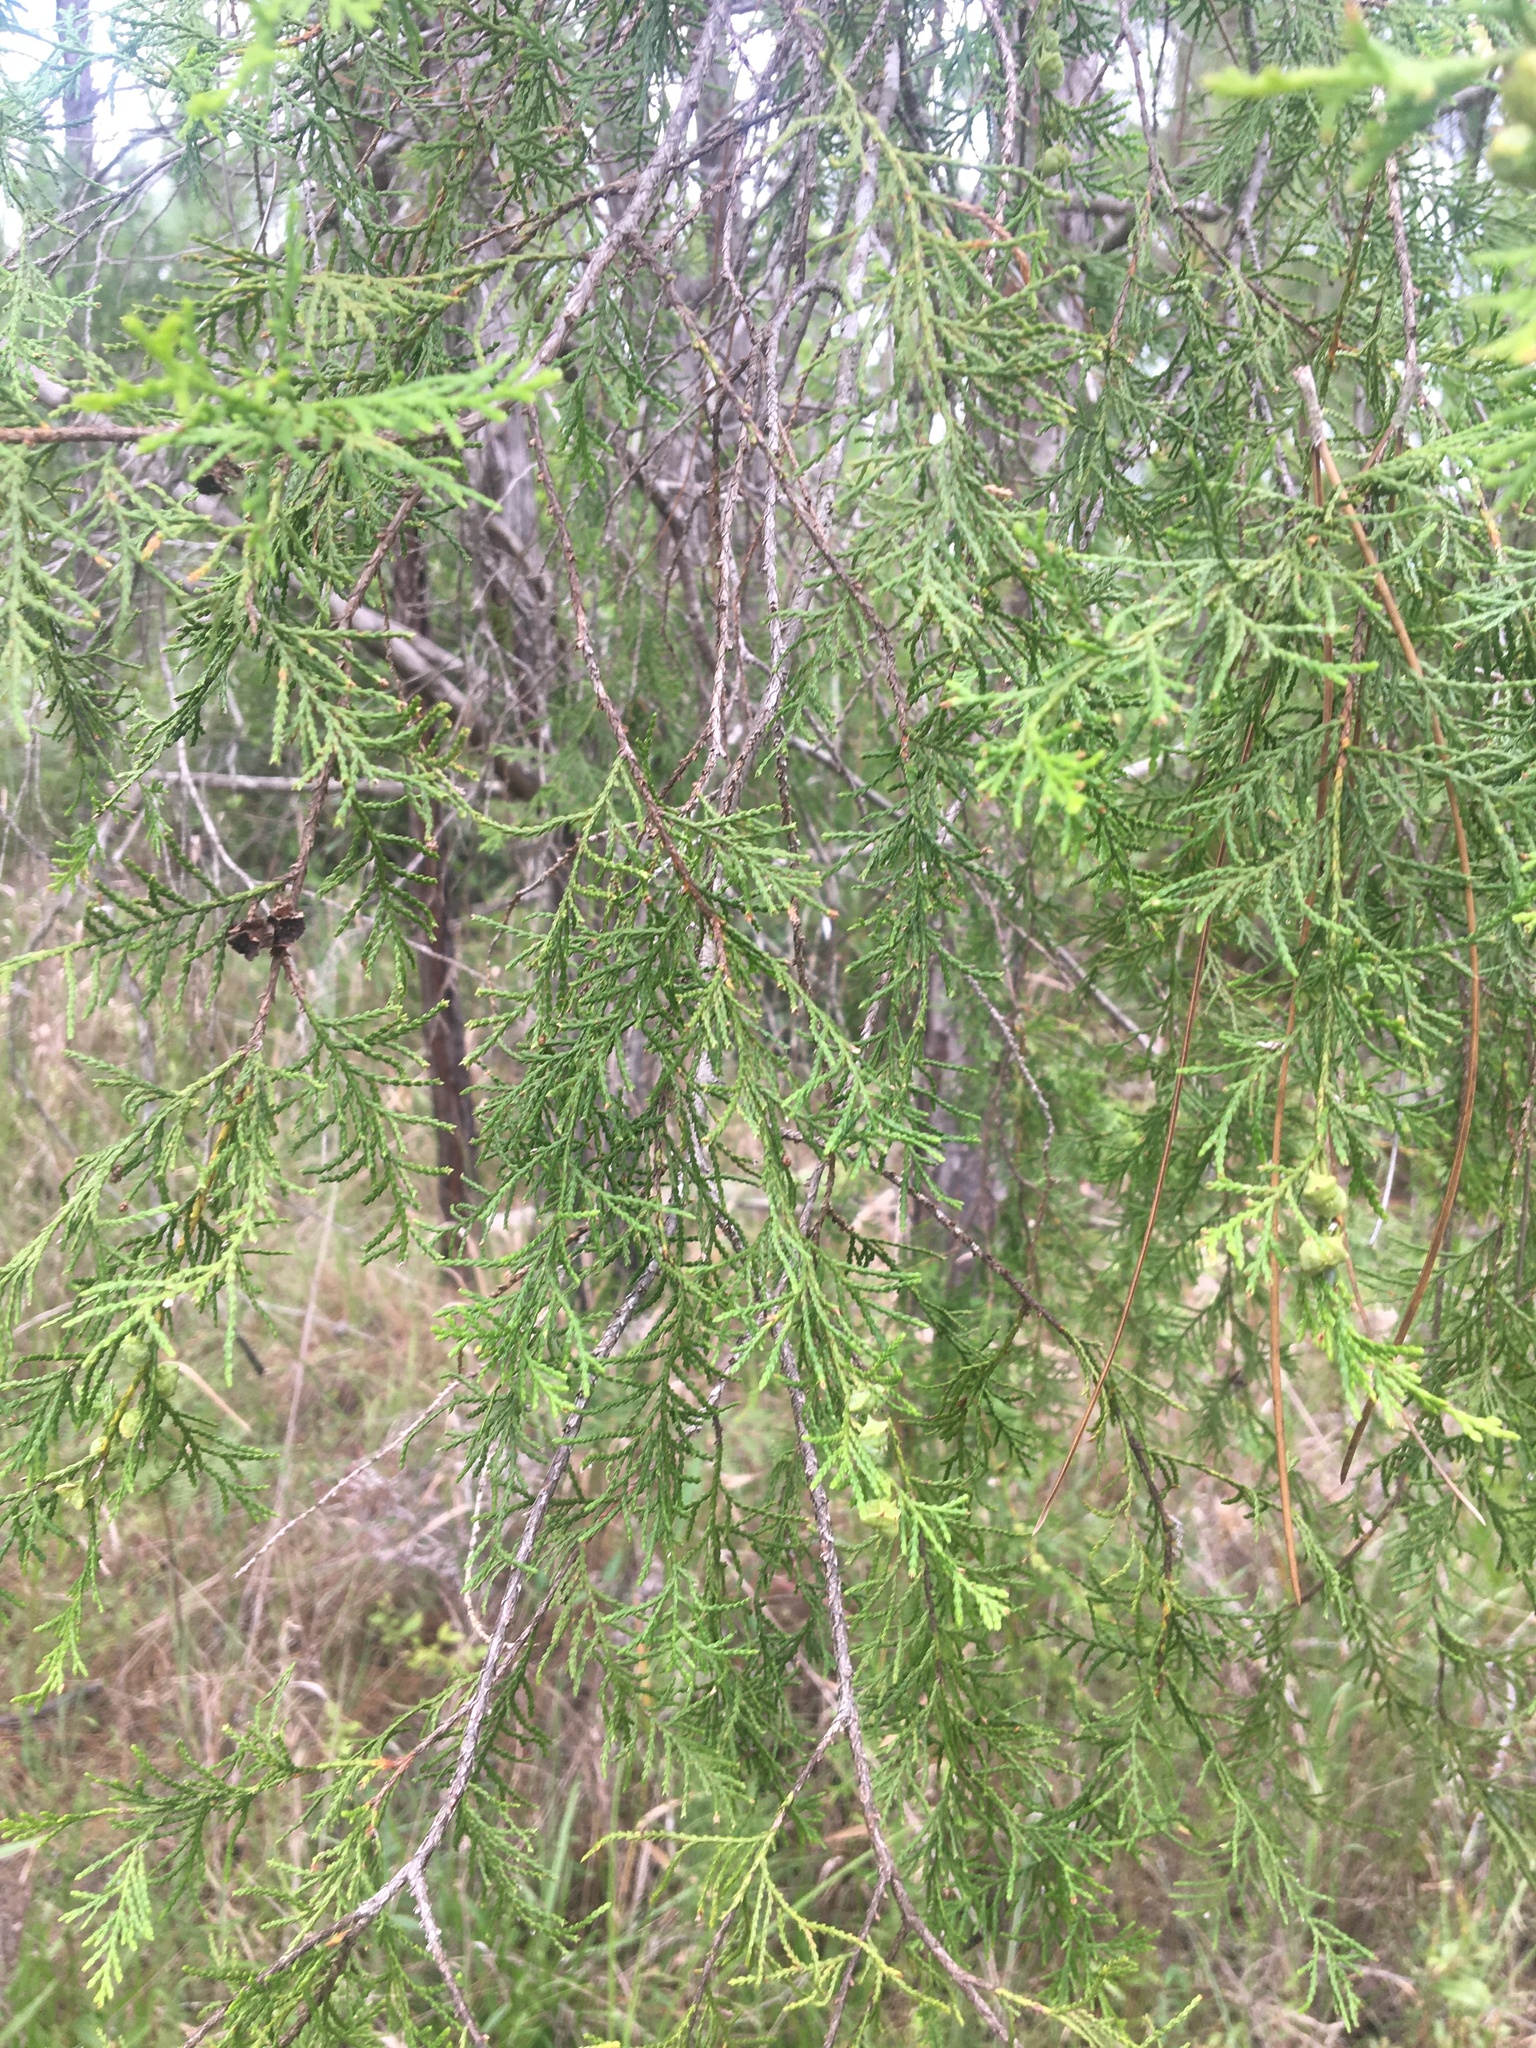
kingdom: Plantae
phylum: Tracheophyta
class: Pinopsida
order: Pinales
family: Cupressaceae
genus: Chamaecyparis
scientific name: Chamaecyparis thyoides
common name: Atlantic white cedar
